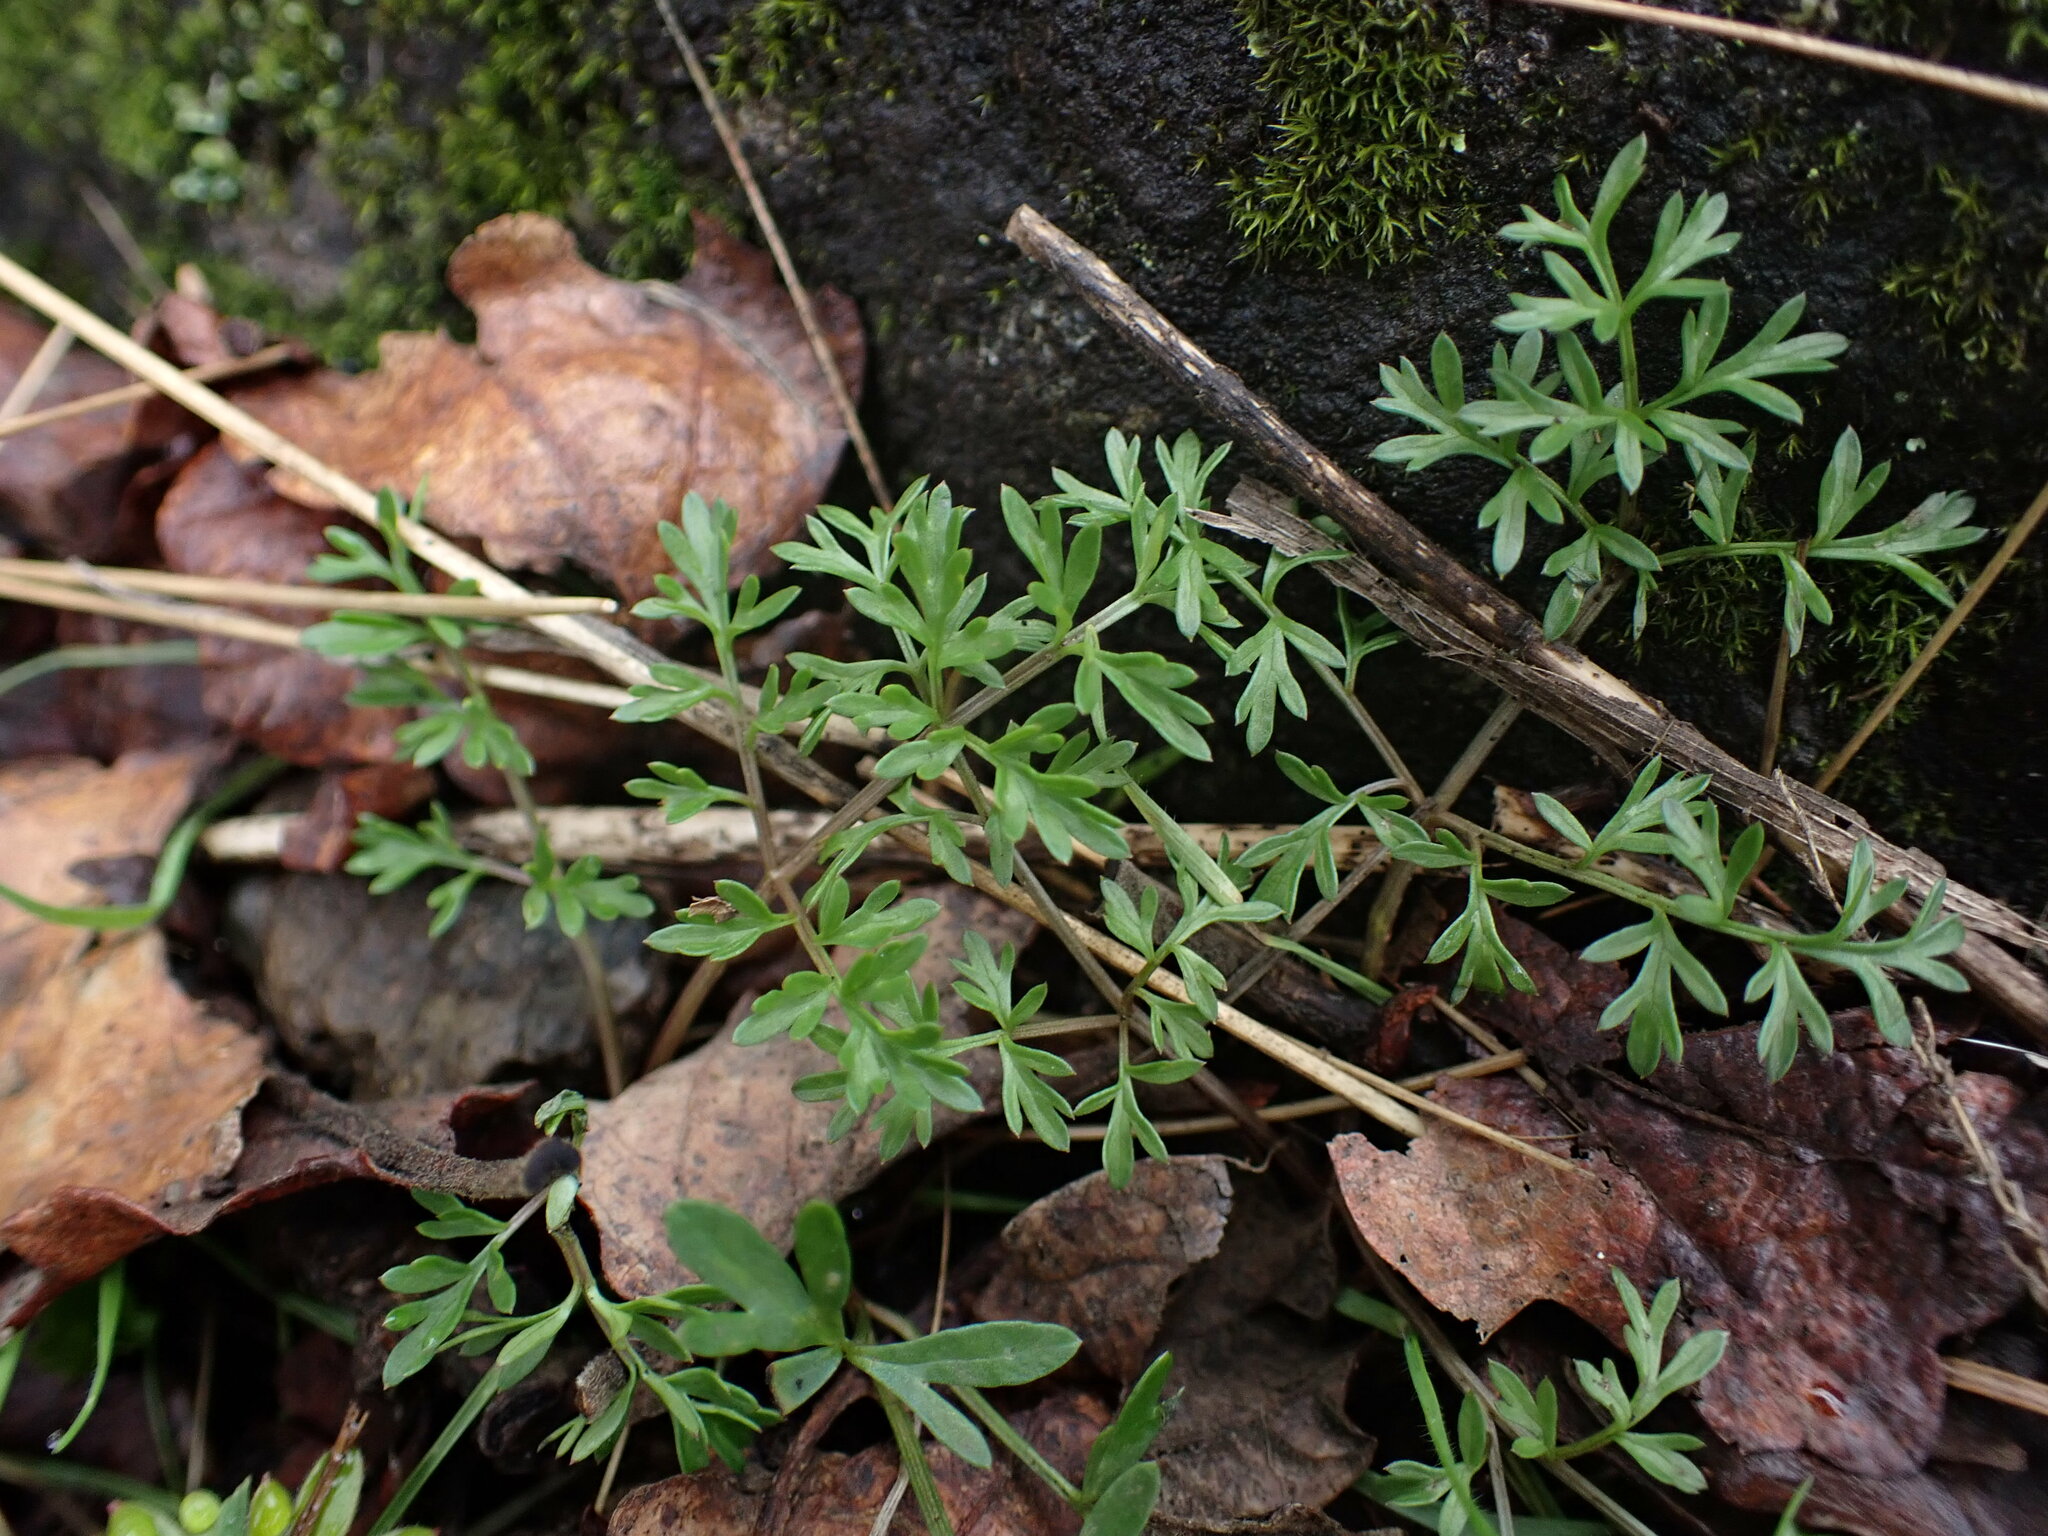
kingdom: Plantae
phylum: Tracheophyta
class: Magnoliopsida
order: Apiales
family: Apiaceae
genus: Lomatium
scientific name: Lomatium utriculatum
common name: Fine-leaf desert-parsley
